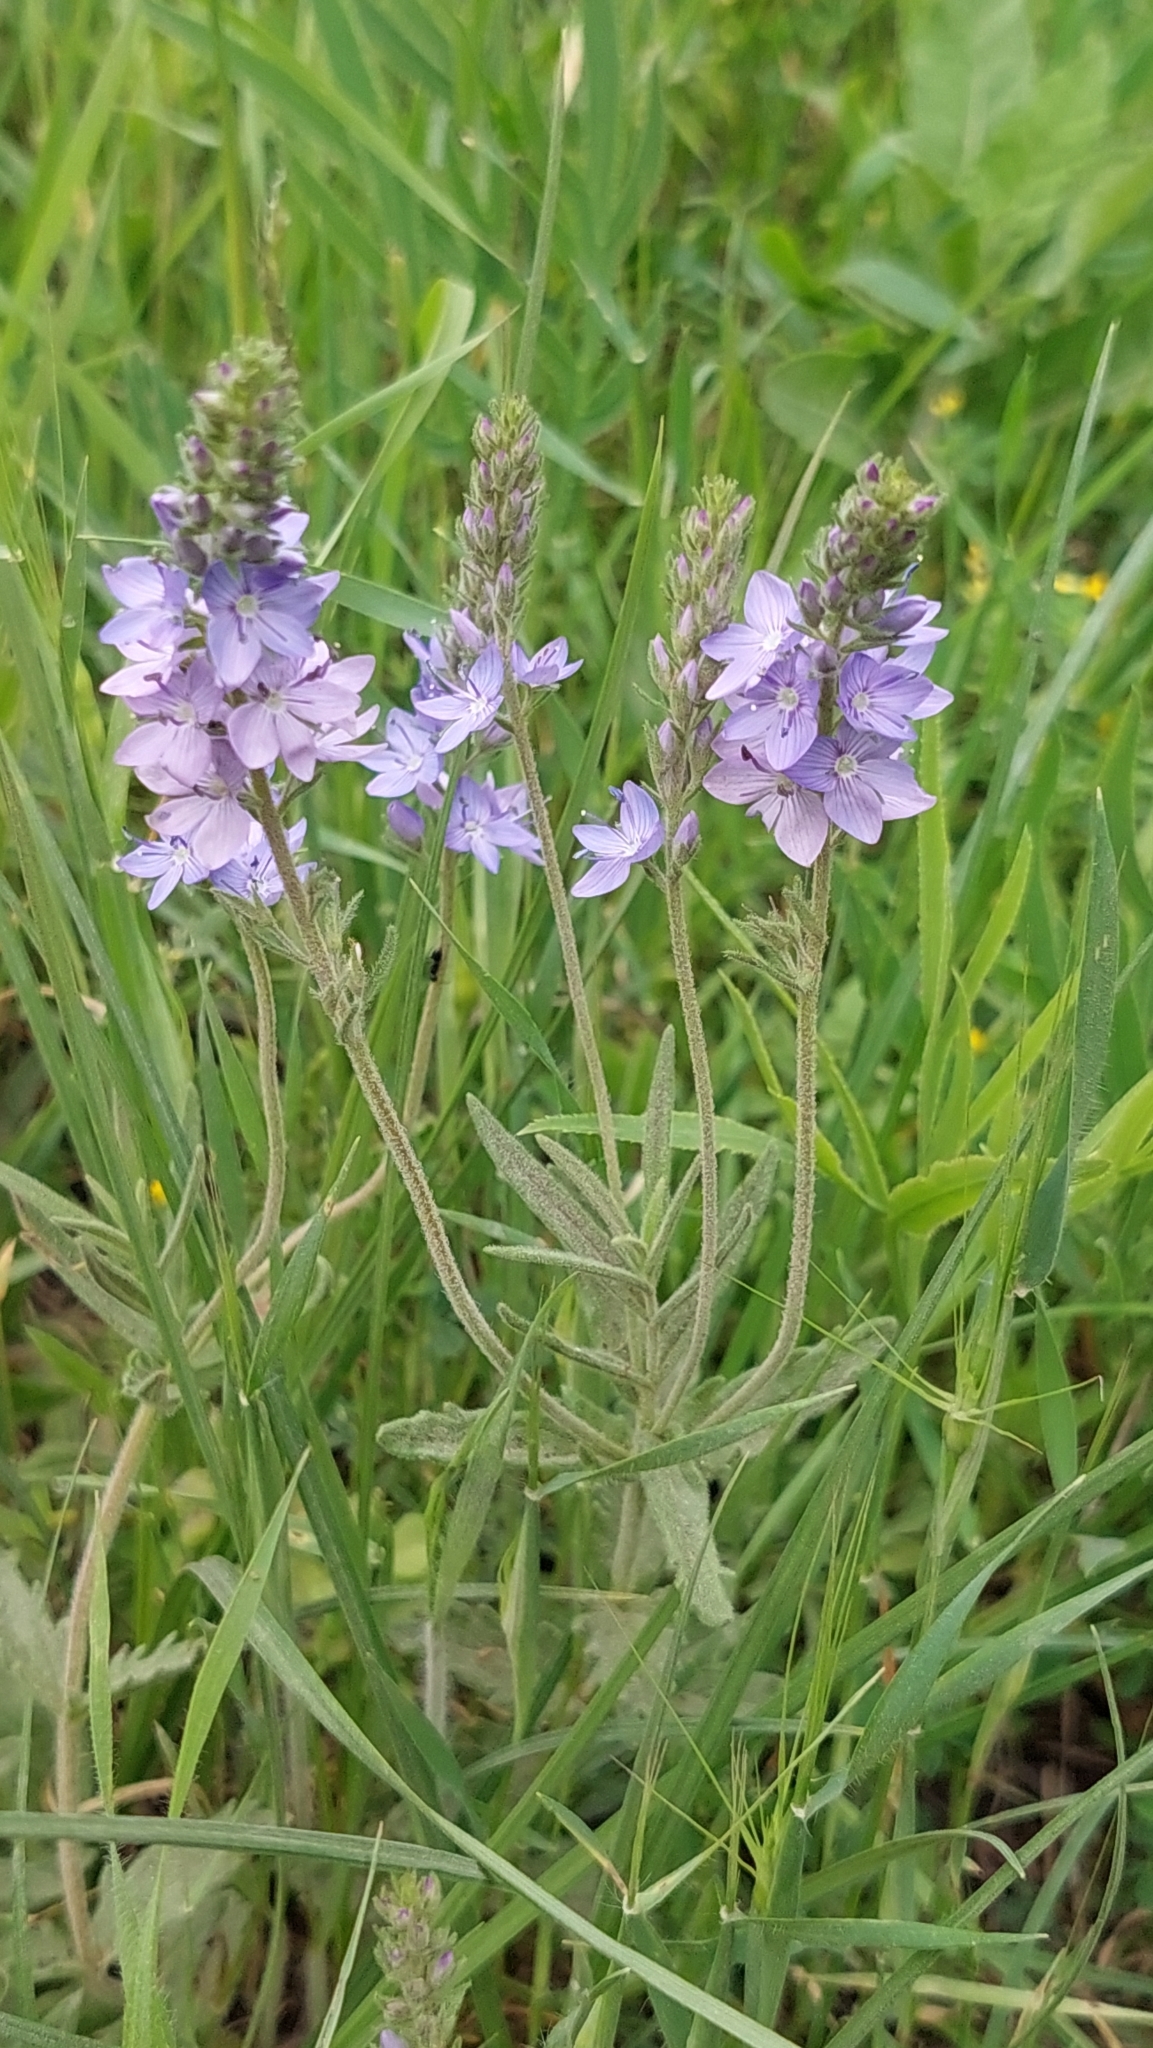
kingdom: Plantae
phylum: Tracheophyta
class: Magnoliopsida
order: Lamiales
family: Plantaginaceae
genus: Veronica
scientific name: Veronica austriaca
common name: Large speedwell
